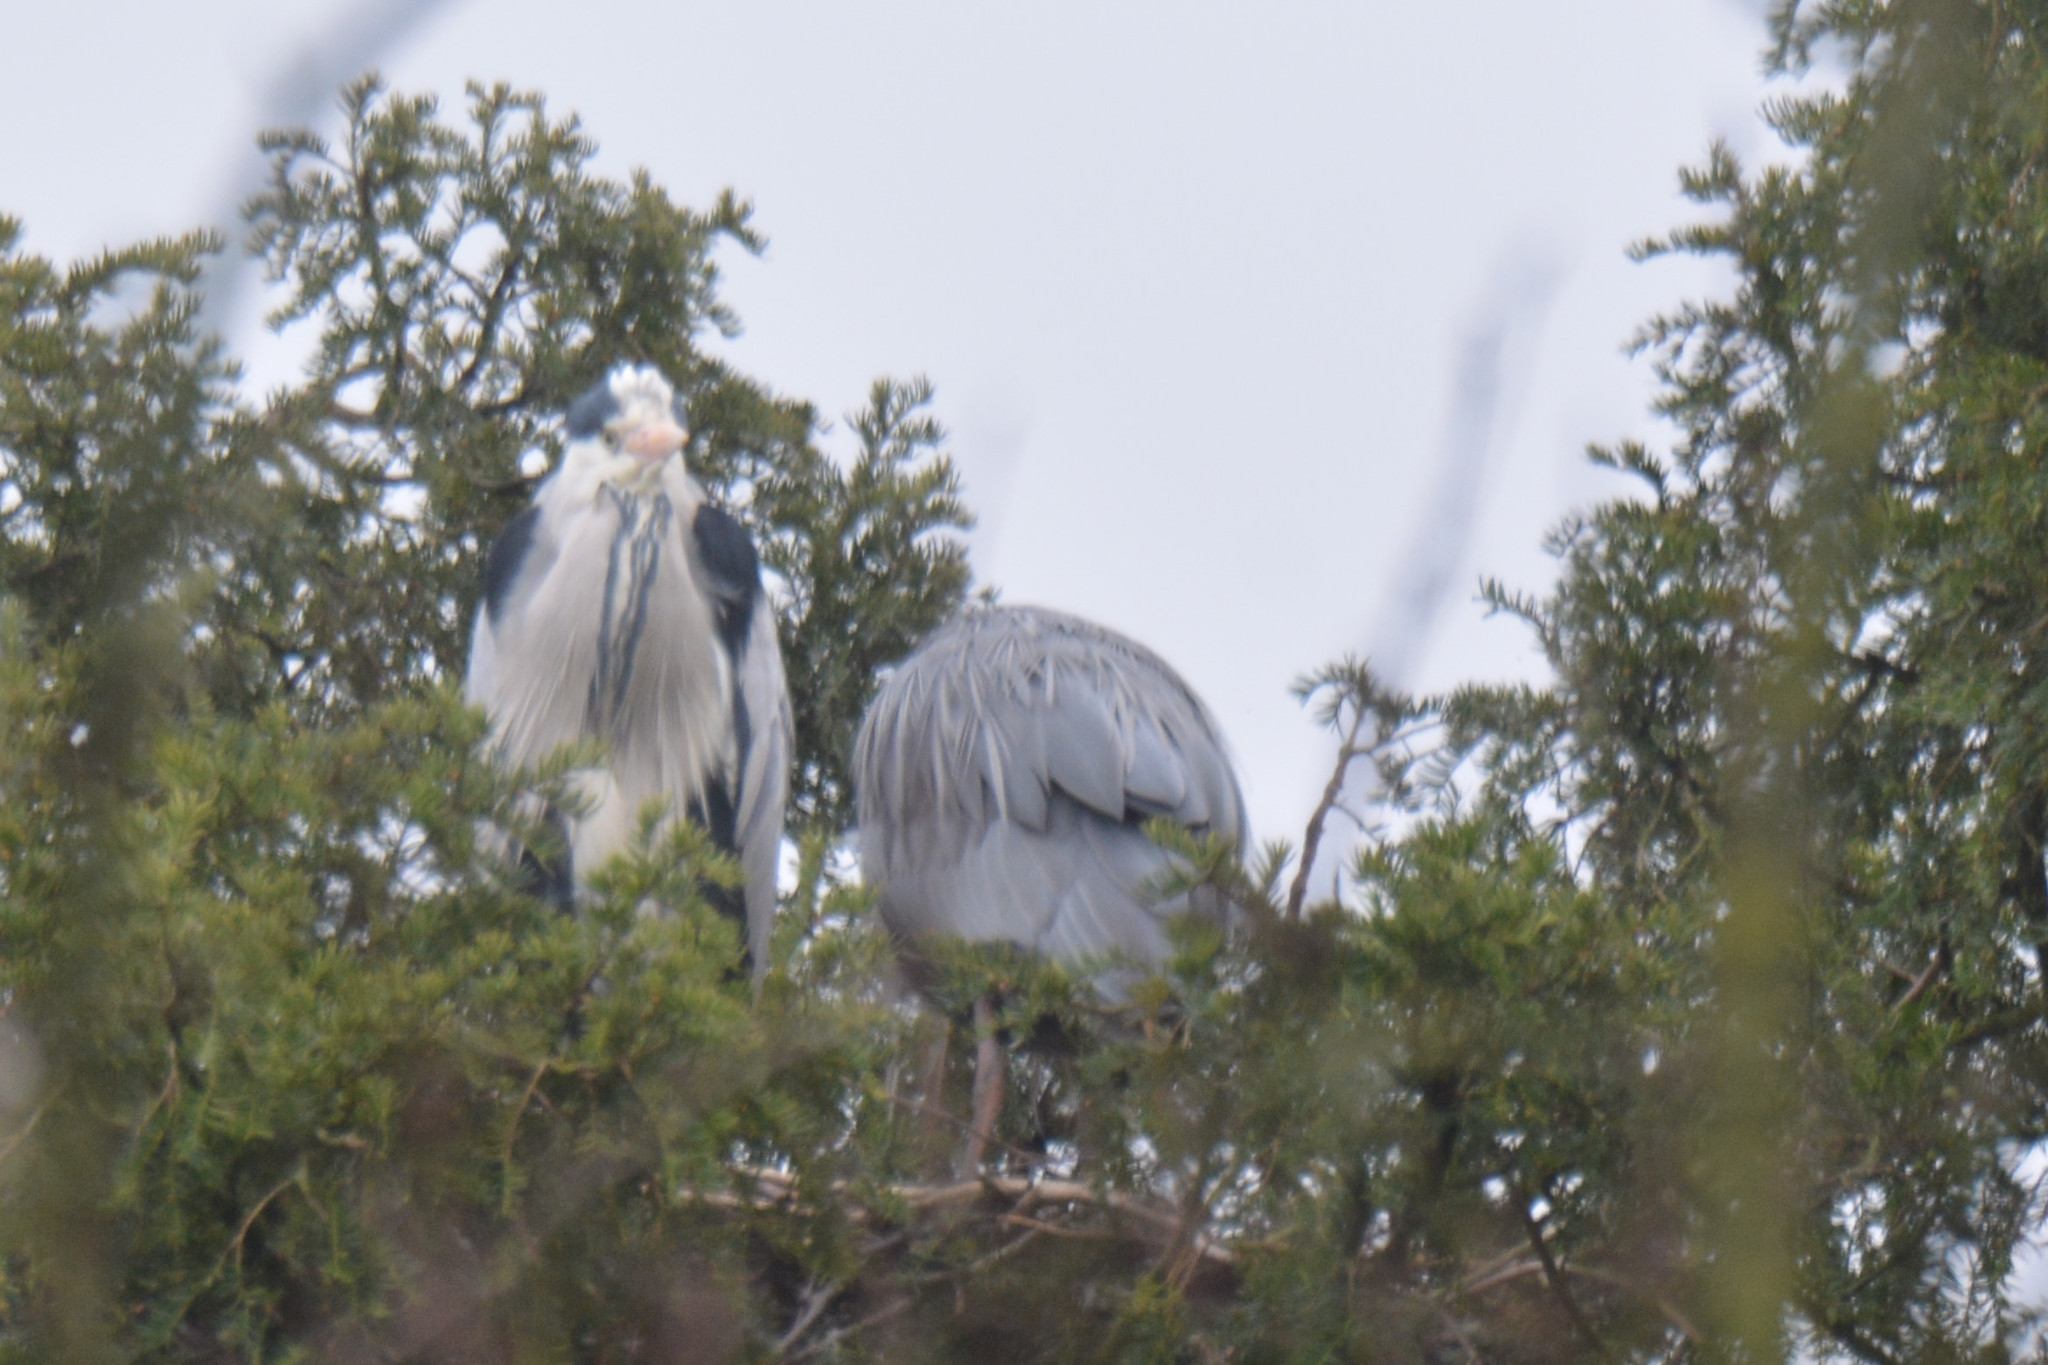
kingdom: Animalia
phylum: Chordata
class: Aves
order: Pelecaniformes
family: Ardeidae
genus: Ardea
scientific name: Ardea cinerea
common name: Grey heron
